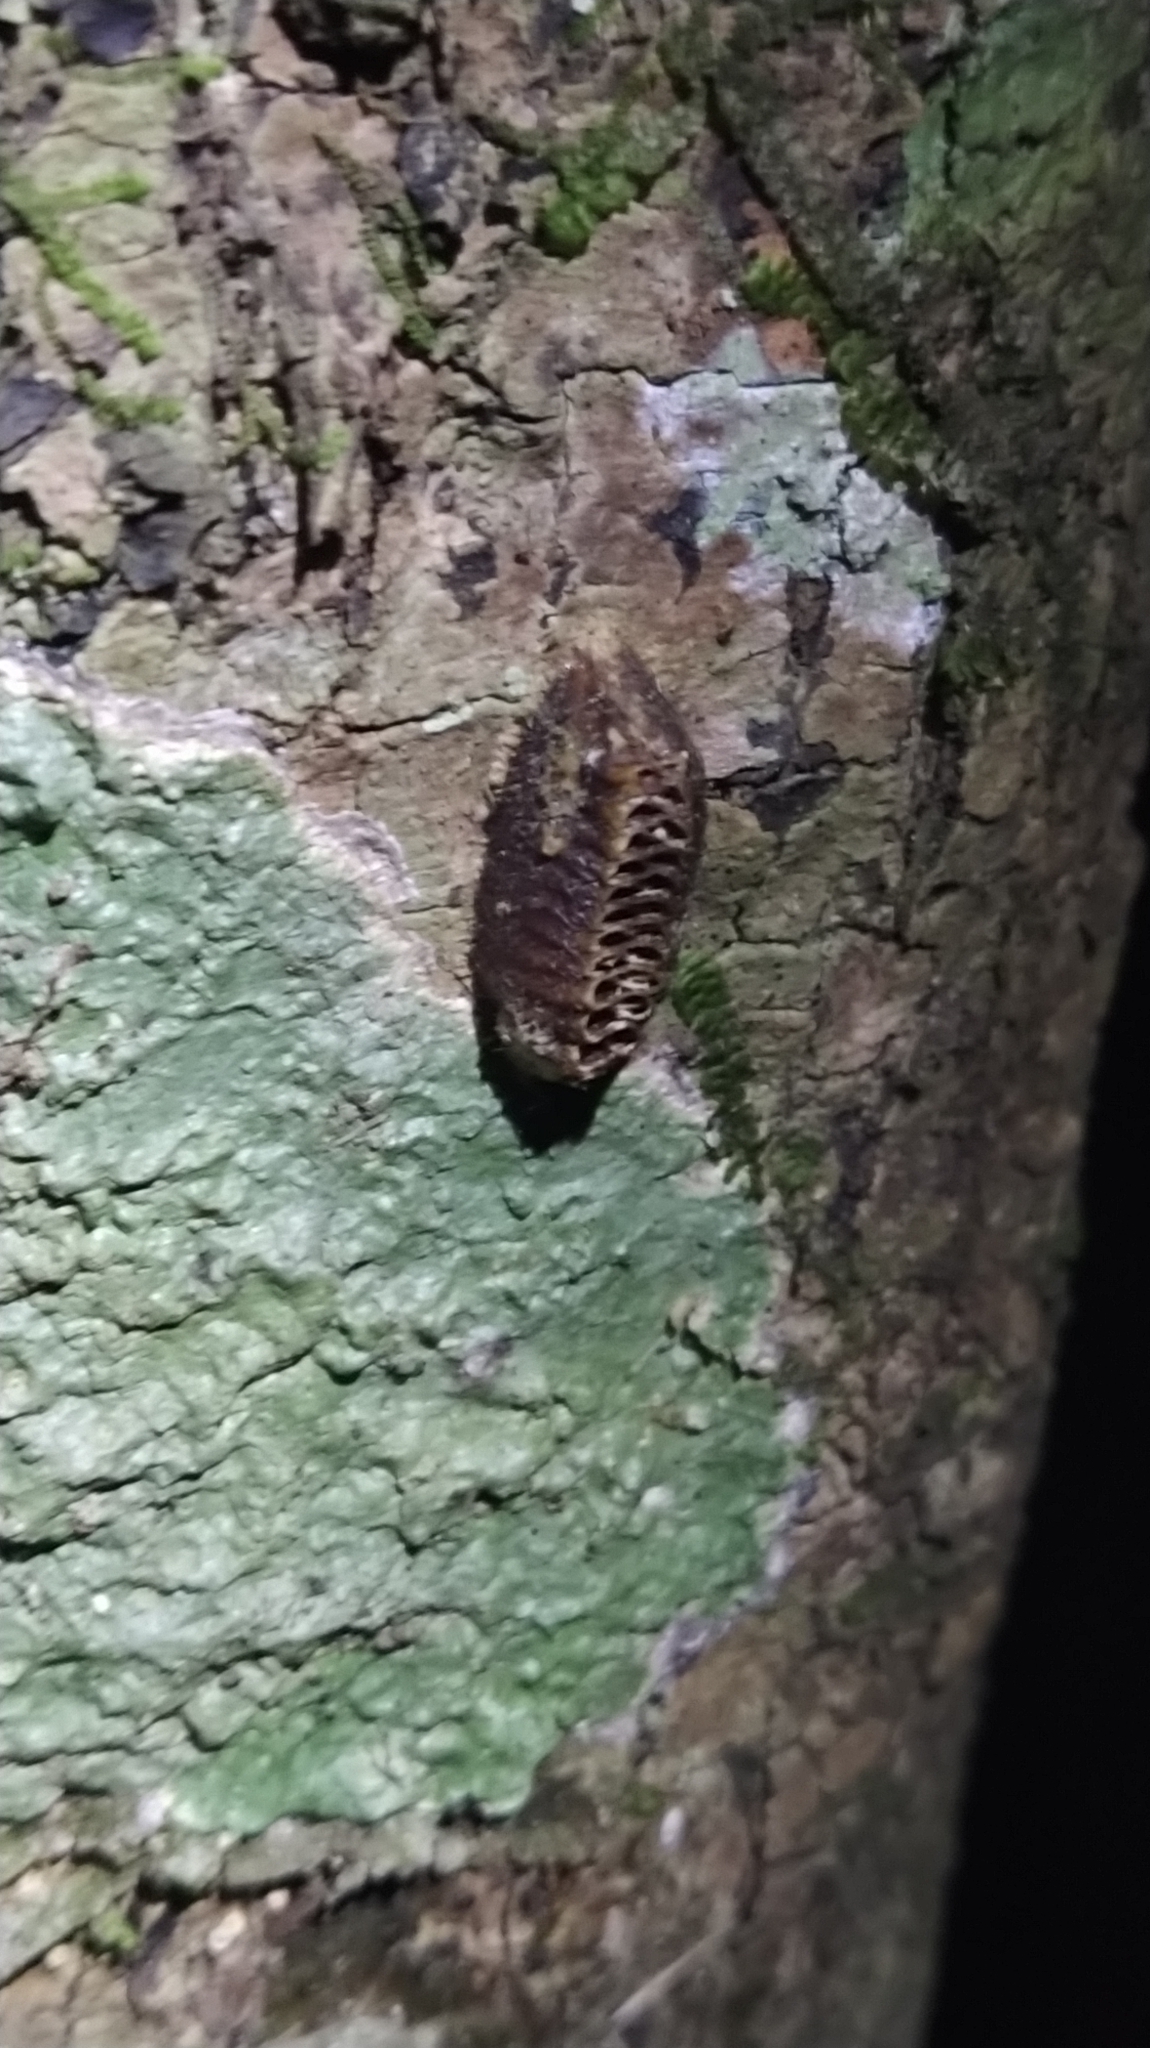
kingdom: Animalia
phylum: Arthropoda
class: Insecta
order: Mantodea
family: Mantidae
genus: Orthodera
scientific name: Orthodera novaezealandiae
